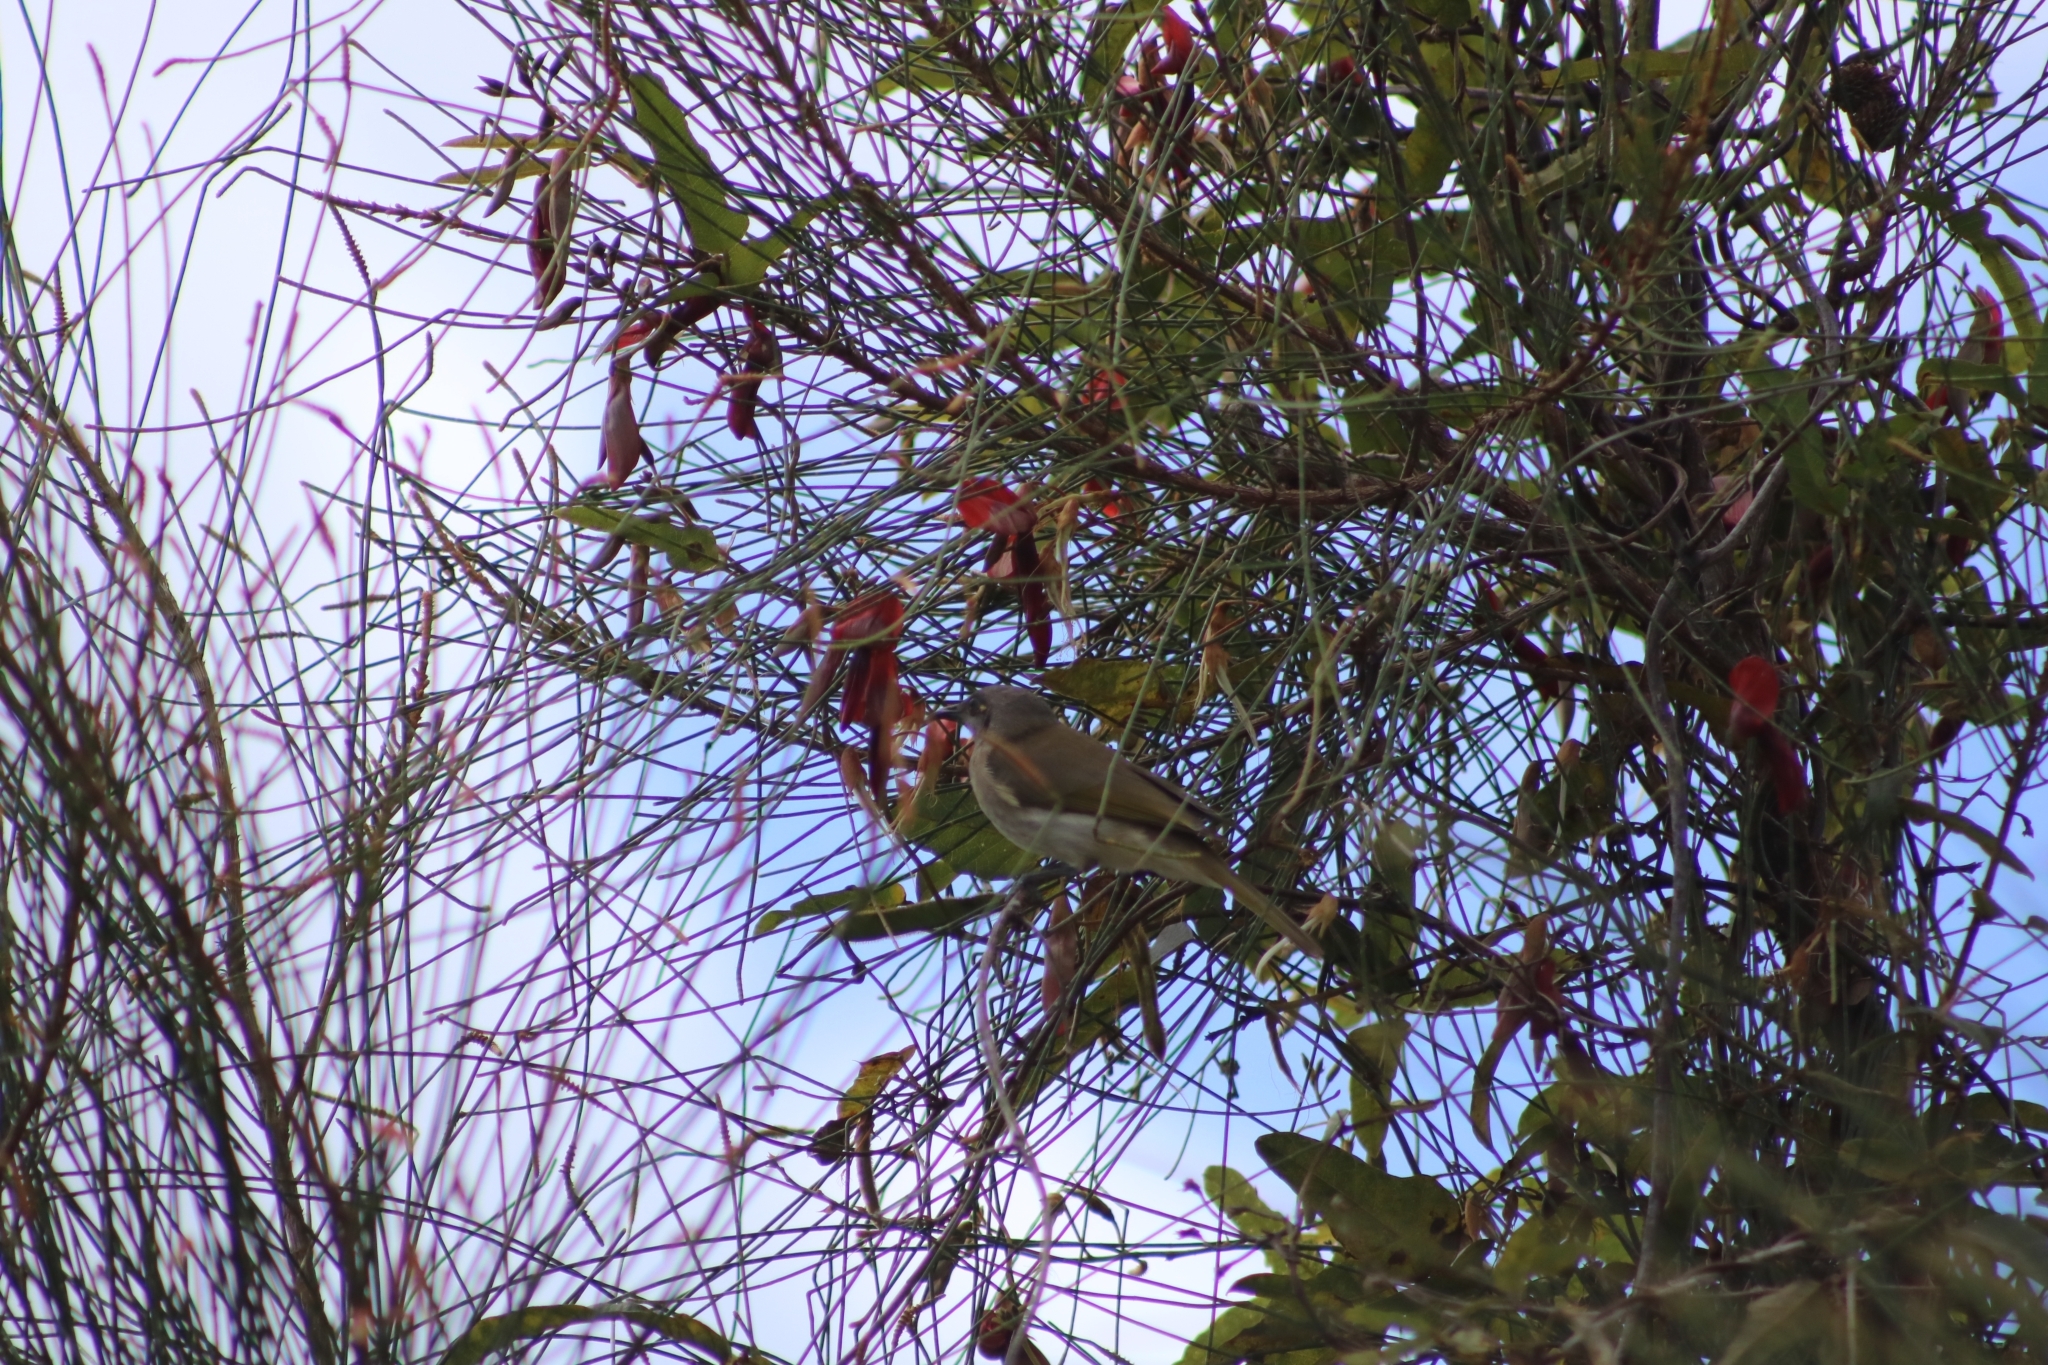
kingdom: Animalia
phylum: Chordata
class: Aves
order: Passeriformes
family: Meliphagidae
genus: Lichmera
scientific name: Lichmera indistincta
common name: Brown honeyeater
